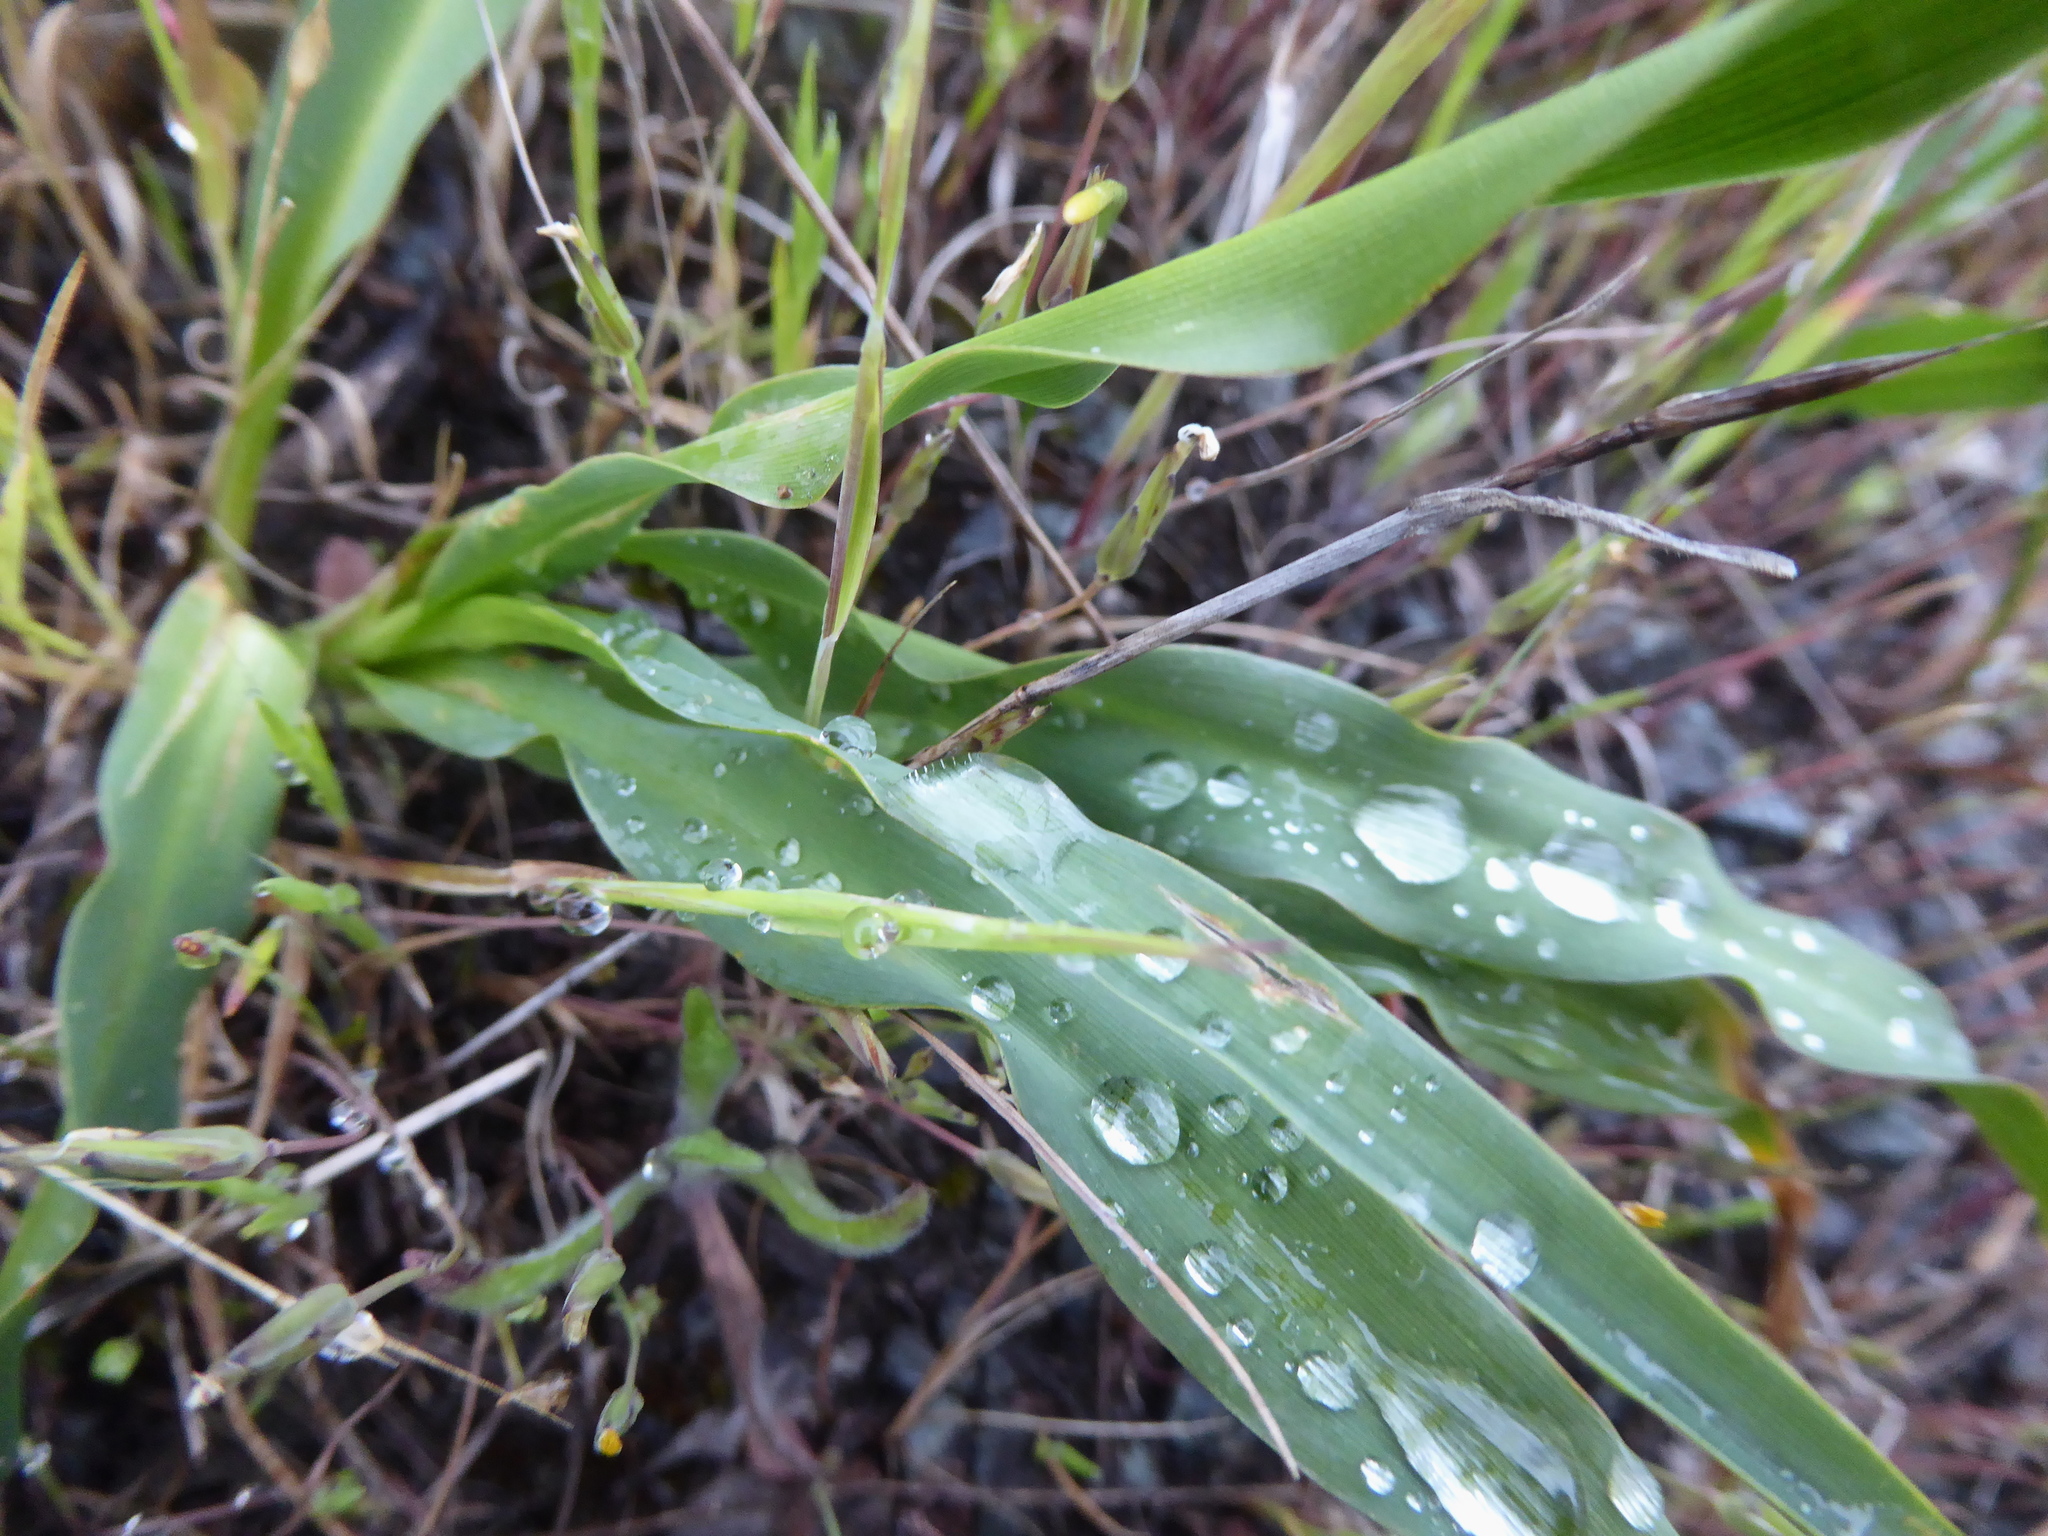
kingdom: Plantae
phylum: Tracheophyta
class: Liliopsida
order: Asparagales
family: Asparagaceae
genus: Chlorogalum
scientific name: Chlorogalum pomeridianum
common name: Amole
